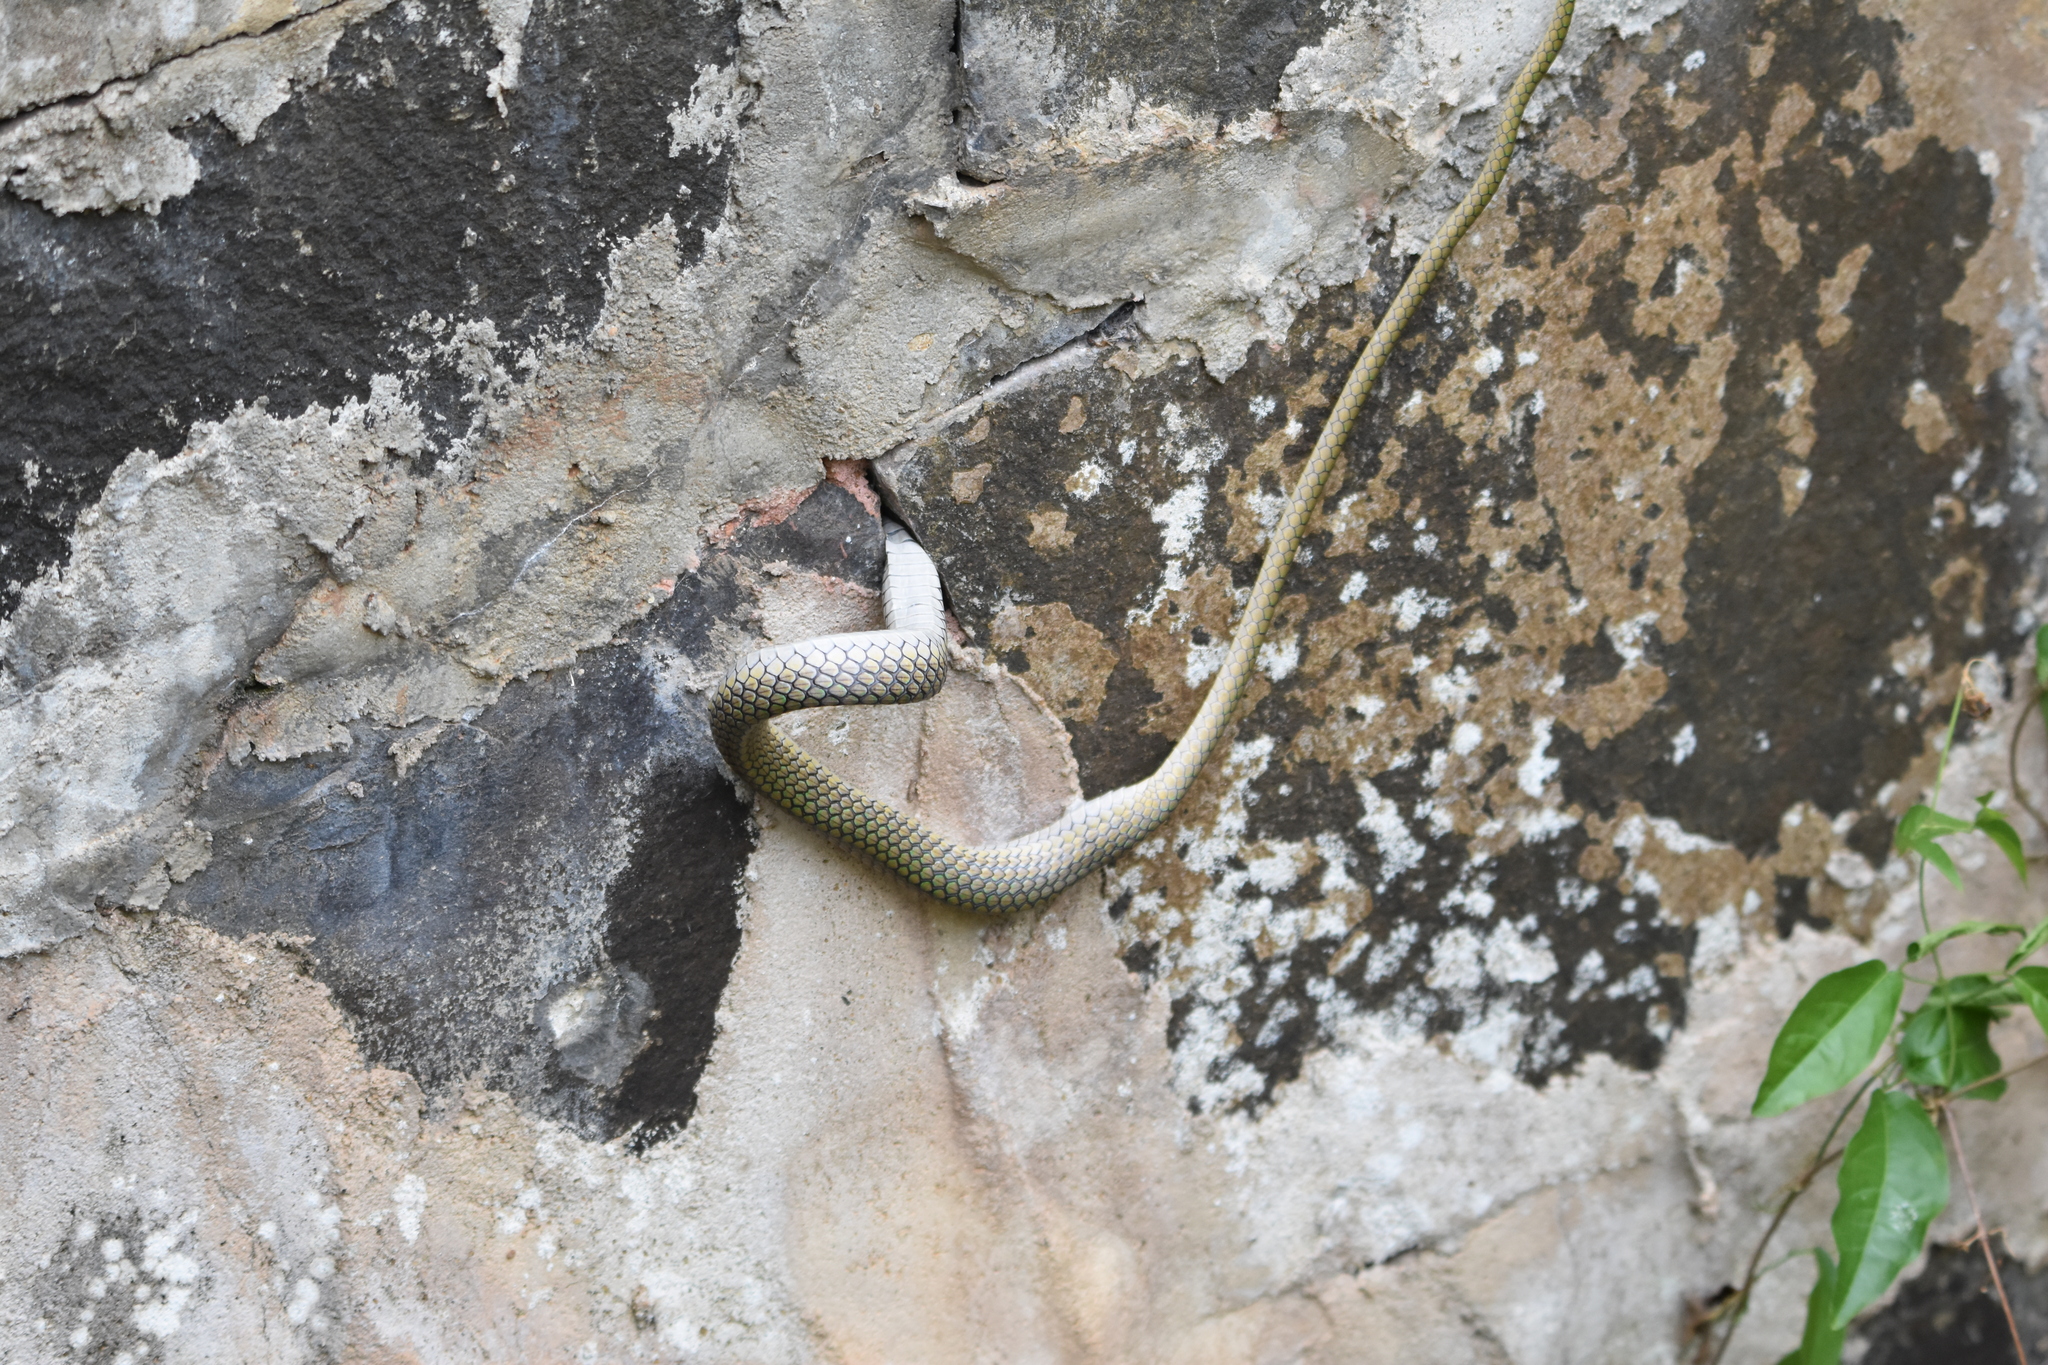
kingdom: Animalia
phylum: Chordata
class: Squamata
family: Colubridae
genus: Leptophis
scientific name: Leptophis ahaetulla
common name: Parrot snake
